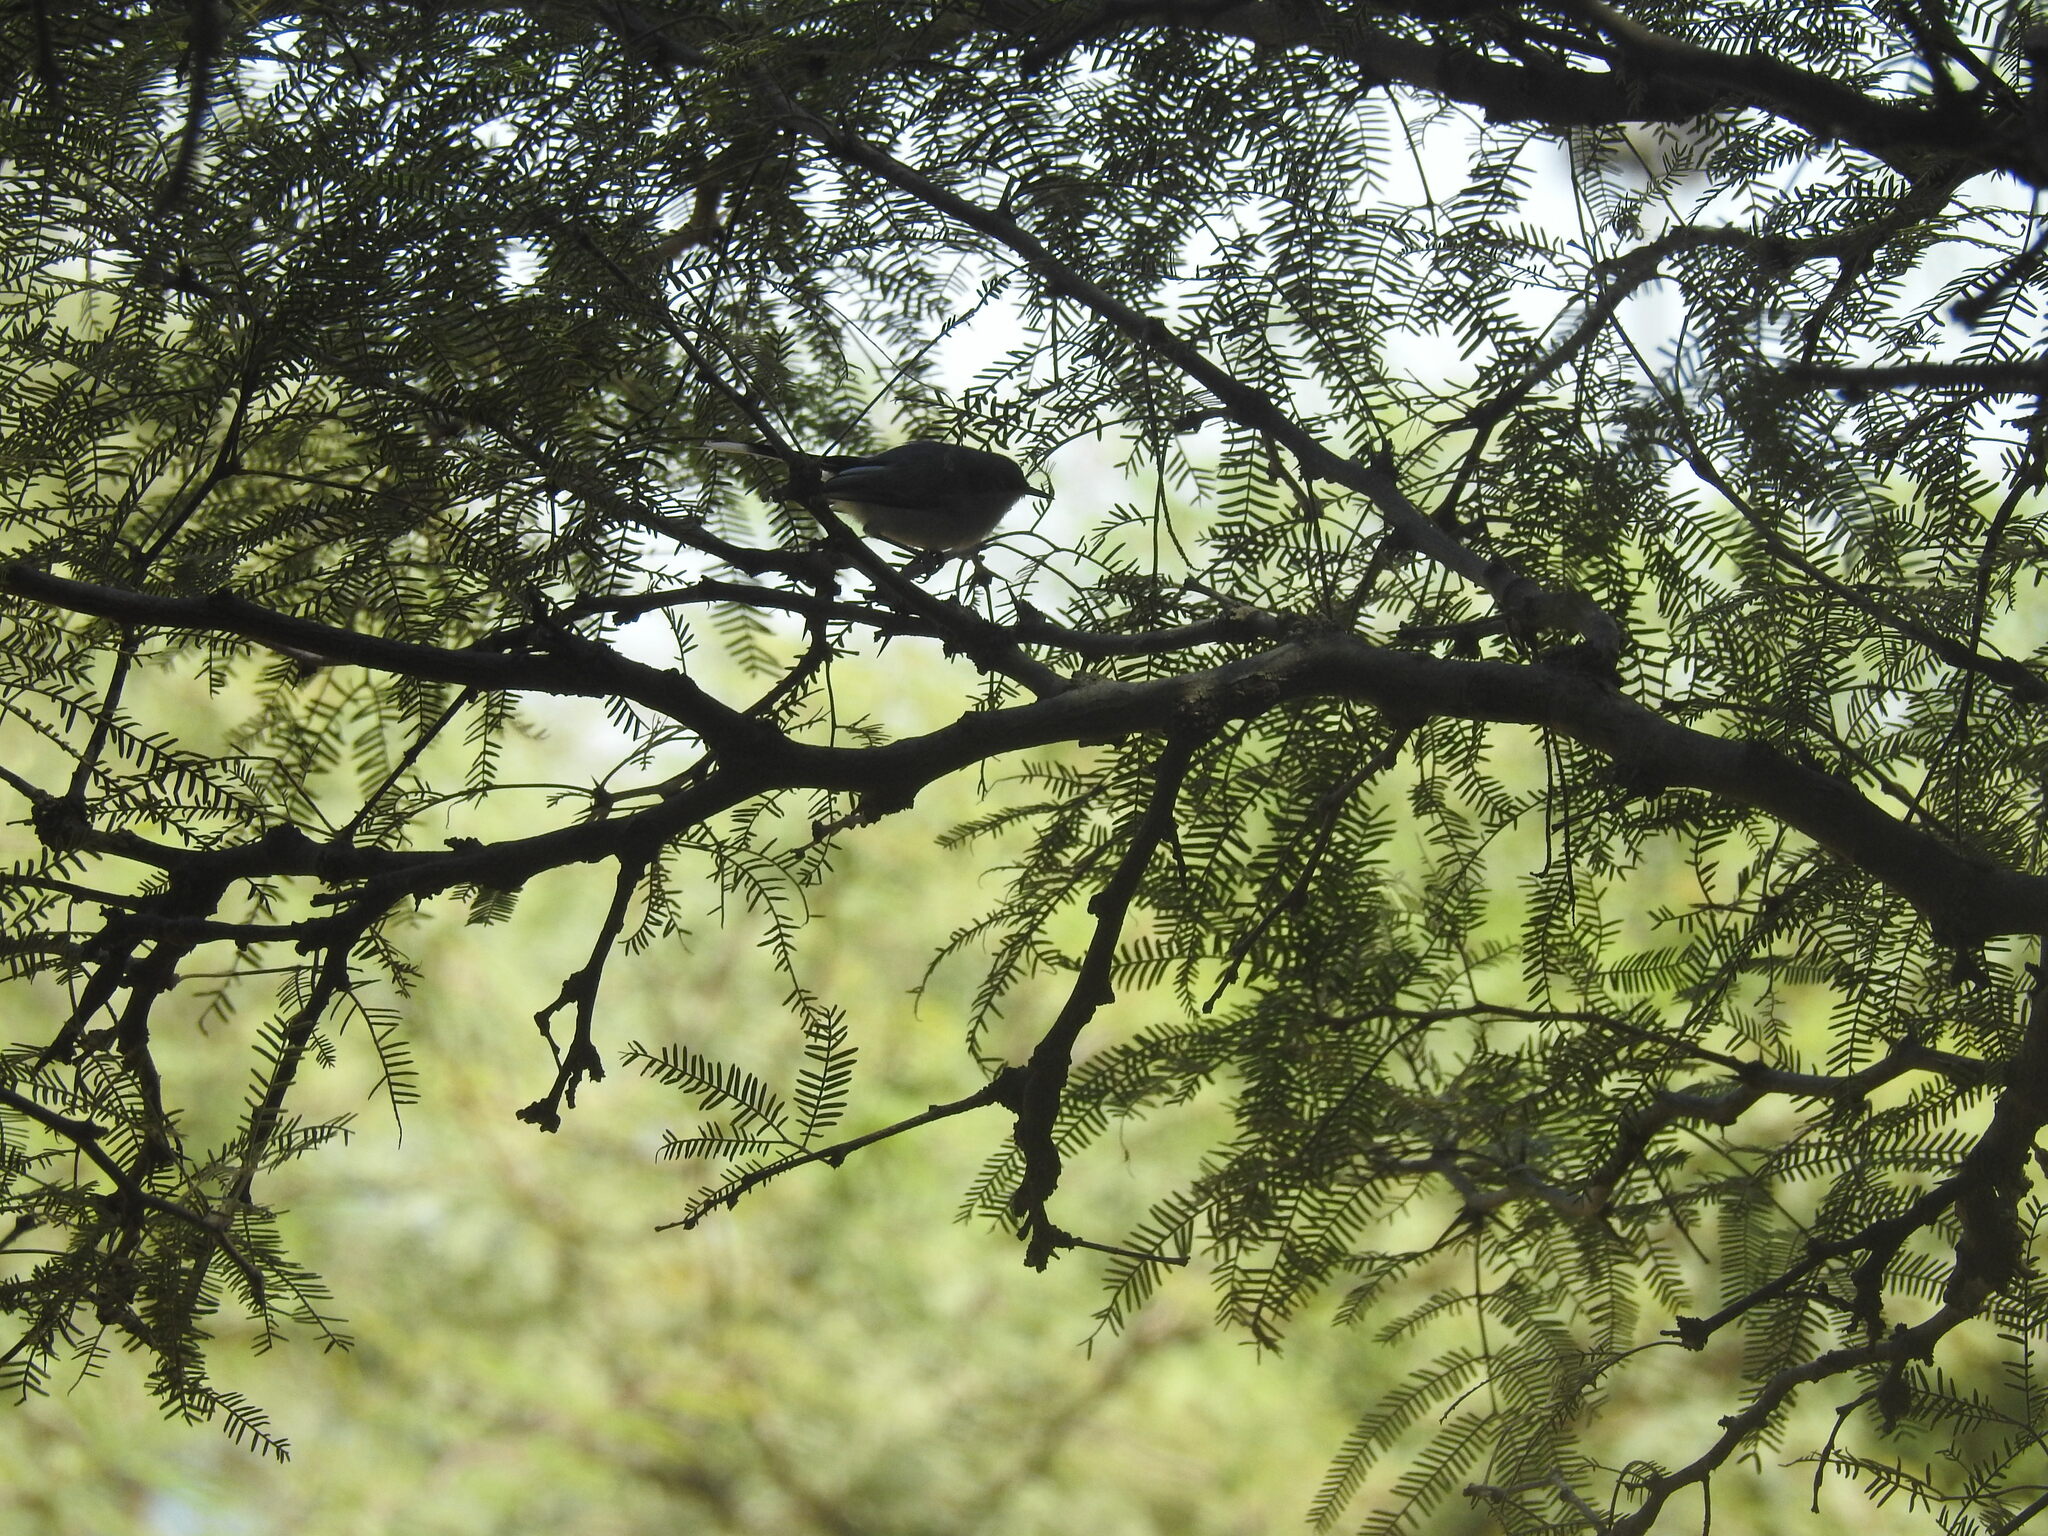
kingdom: Animalia
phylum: Chordata
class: Aves
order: Passeriformes
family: Polioptilidae
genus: Polioptila
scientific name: Polioptila dumicola
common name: Masked gnatcatcher
